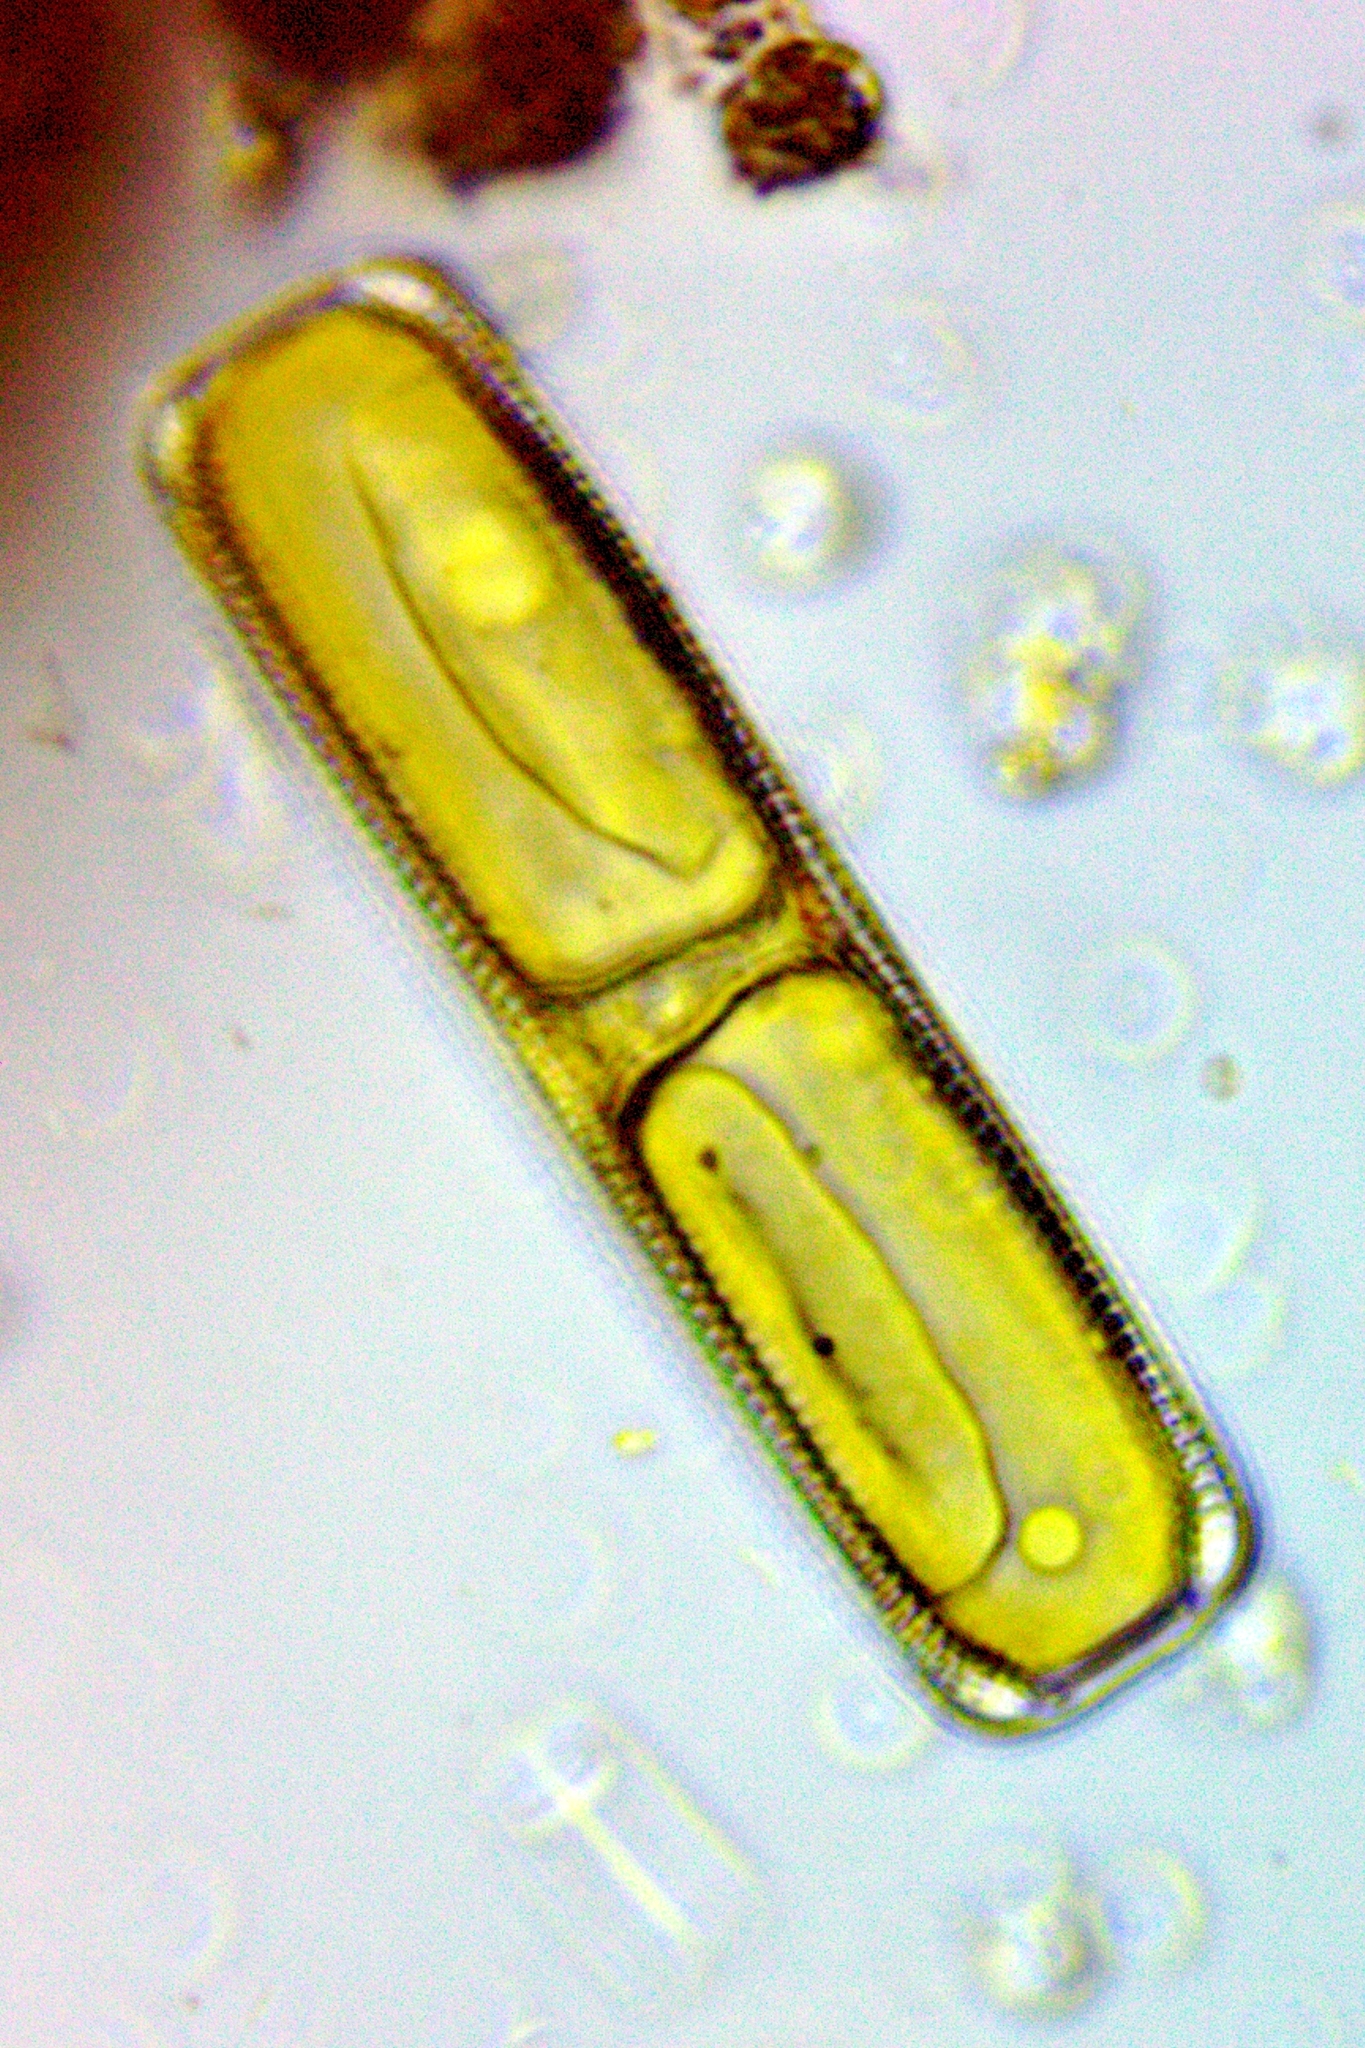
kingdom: Chromista
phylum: Ochrophyta
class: Bacillariophyceae
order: Naviculales
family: Pinnulariaceae
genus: Pinnularia
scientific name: Pinnularia
